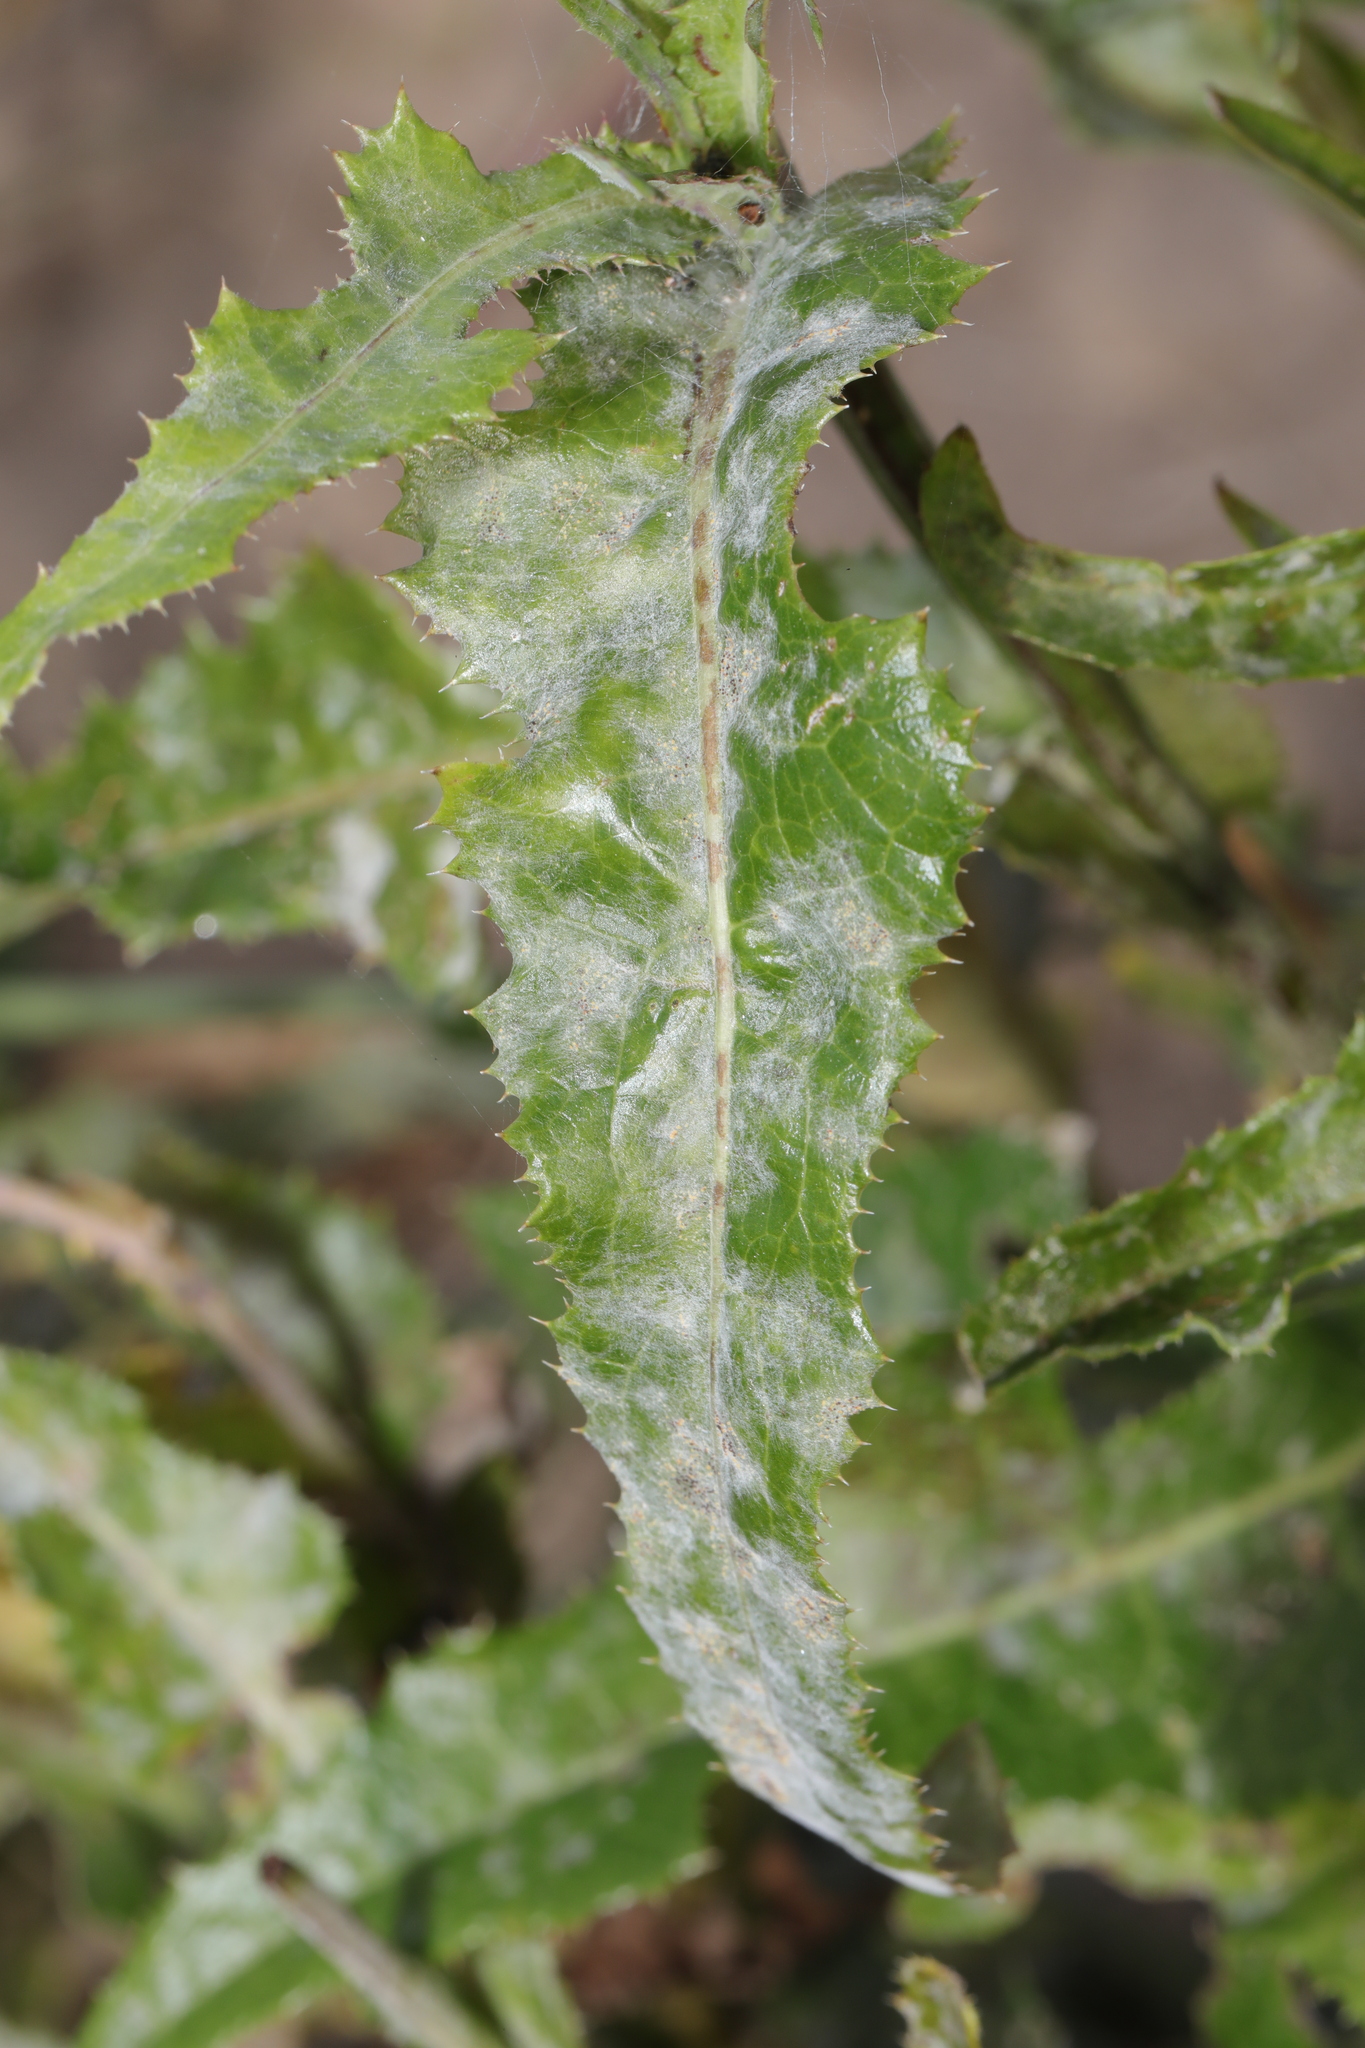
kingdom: Fungi
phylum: Ascomycota
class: Leotiomycetes
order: Helotiales
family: Erysiphaceae
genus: Golovinomyces
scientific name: Golovinomyces sonchicola
